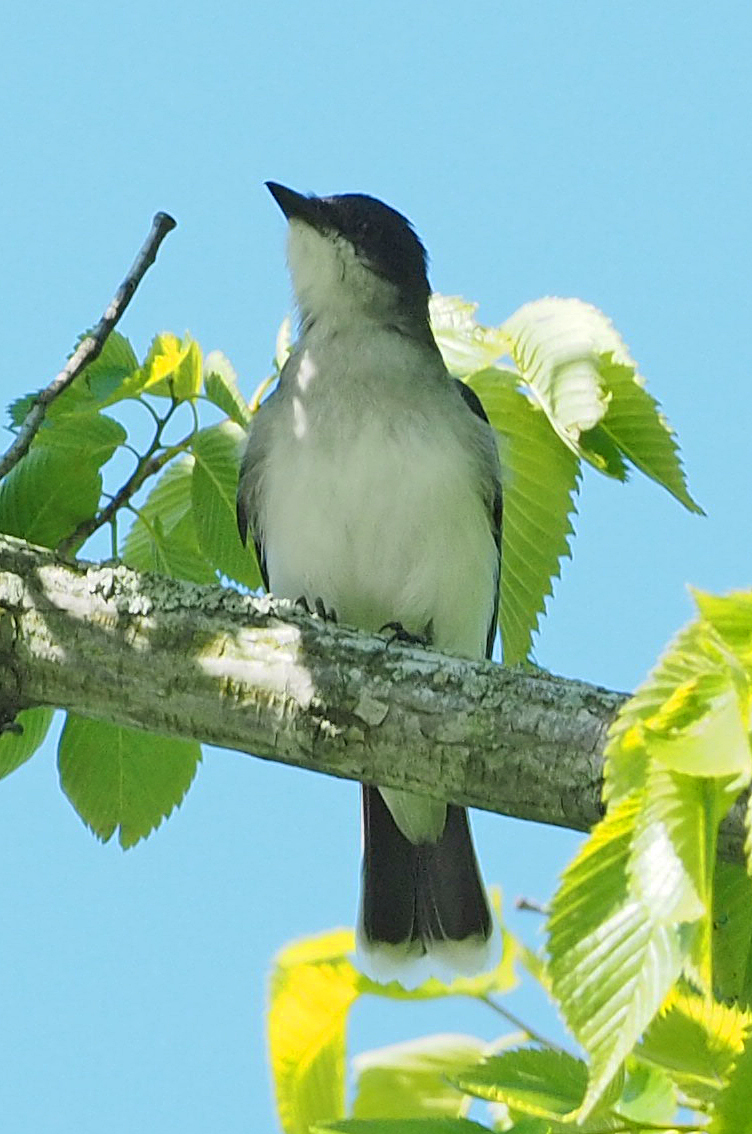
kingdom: Animalia
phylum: Chordata
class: Aves
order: Passeriformes
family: Tyrannidae
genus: Tyrannus
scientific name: Tyrannus tyrannus
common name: Eastern kingbird
